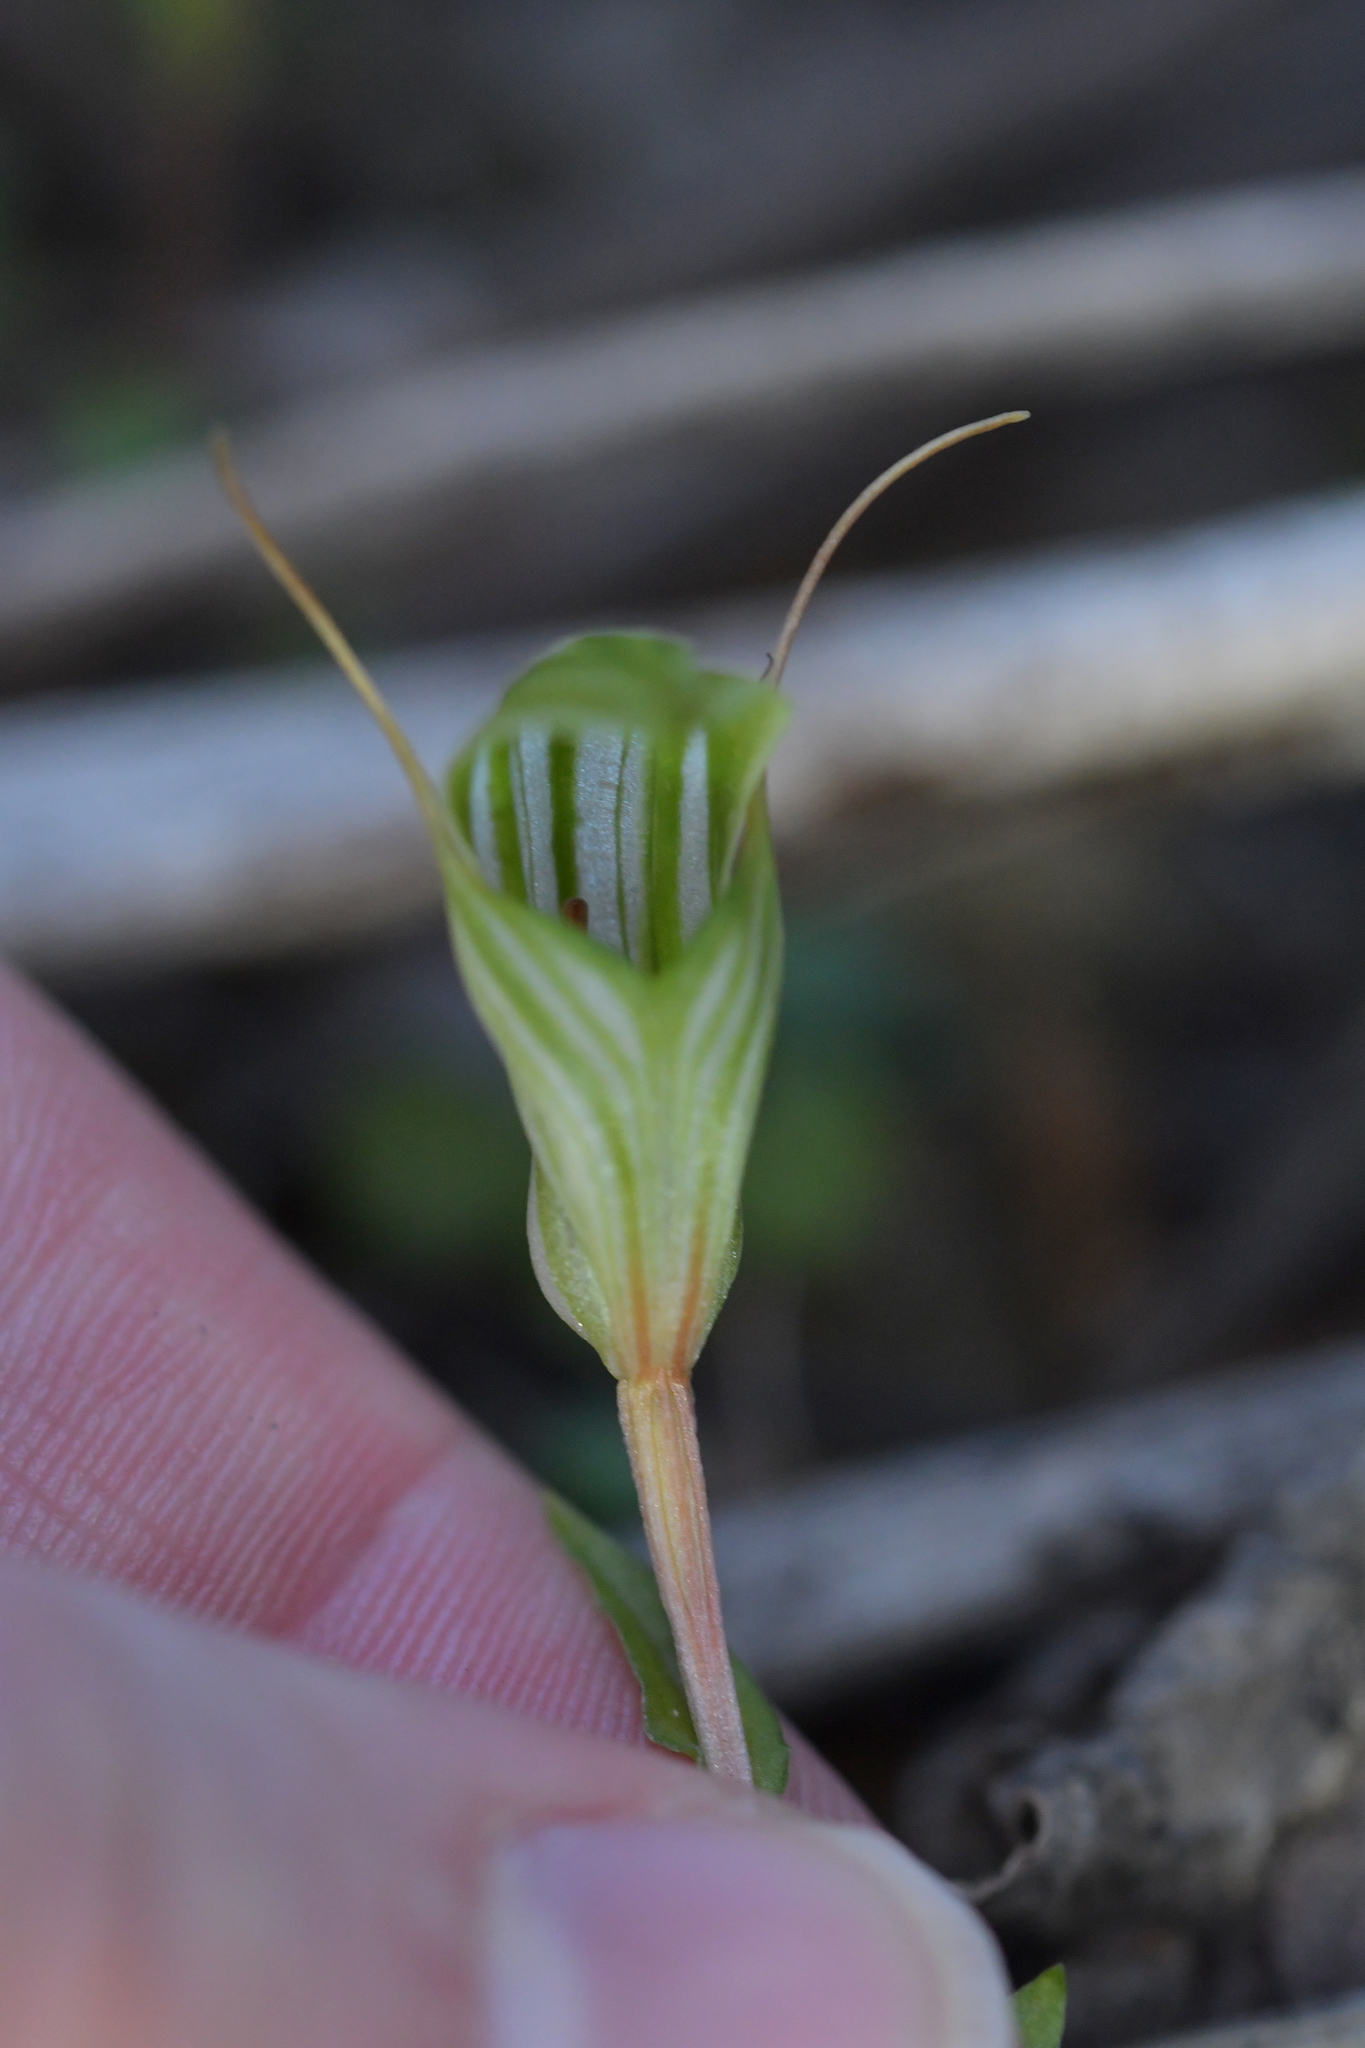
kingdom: Plantae
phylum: Tracheophyta
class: Liliopsida
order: Asparagales
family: Orchidaceae
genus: Pterostylis
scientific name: Pterostylis alobula
